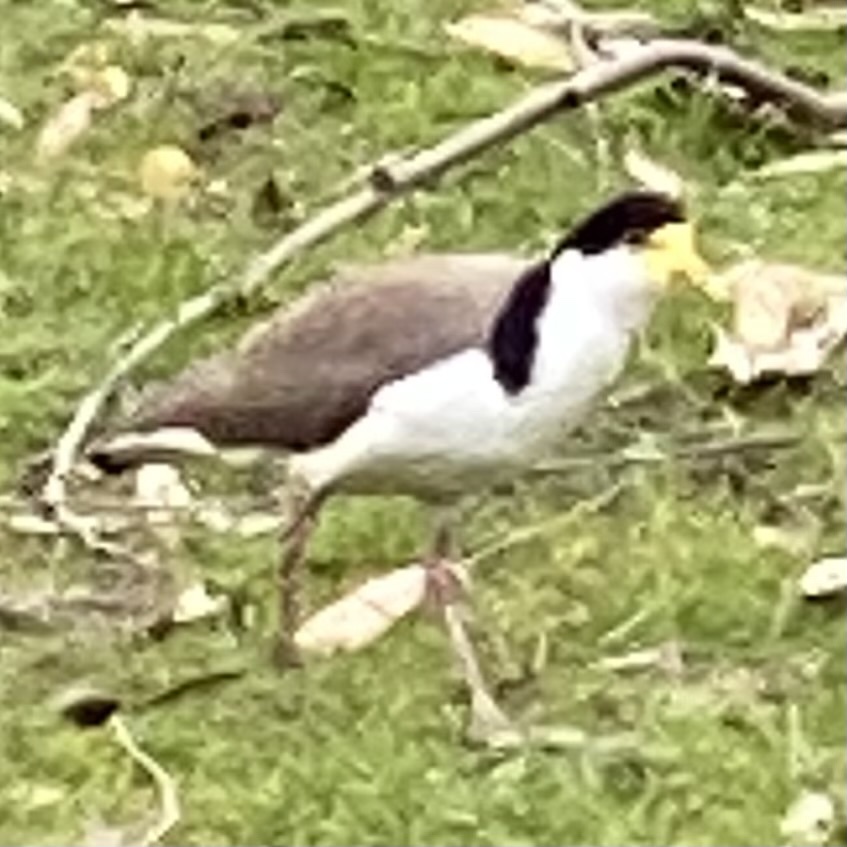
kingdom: Animalia
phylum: Chordata
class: Aves
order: Charadriiformes
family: Charadriidae
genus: Vanellus
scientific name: Vanellus miles
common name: Masked lapwing
